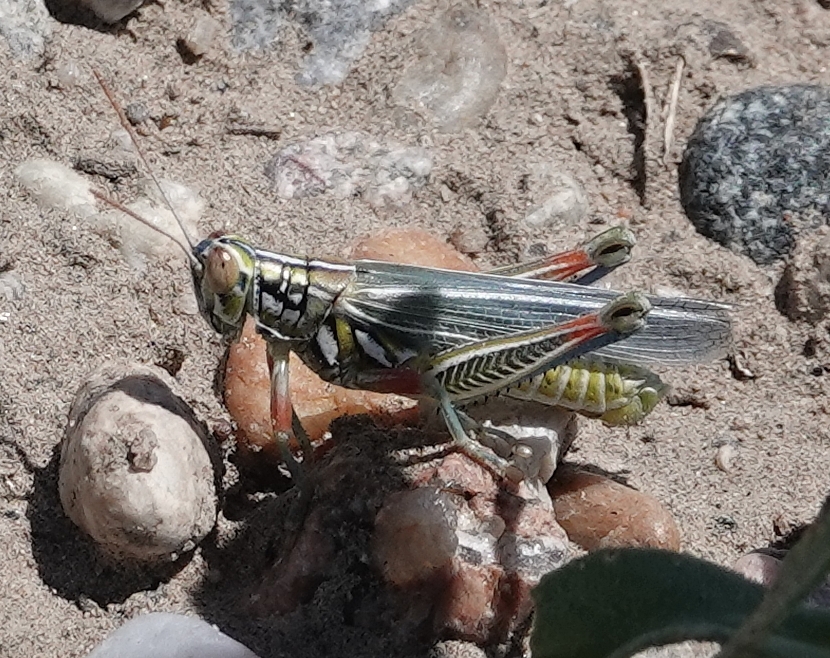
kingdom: Animalia
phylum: Arthropoda
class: Insecta
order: Orthoptera
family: Acrididae
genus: Hesperotettix
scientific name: Hesperotettix viridis
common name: Meadow purple-striped grasshopper
